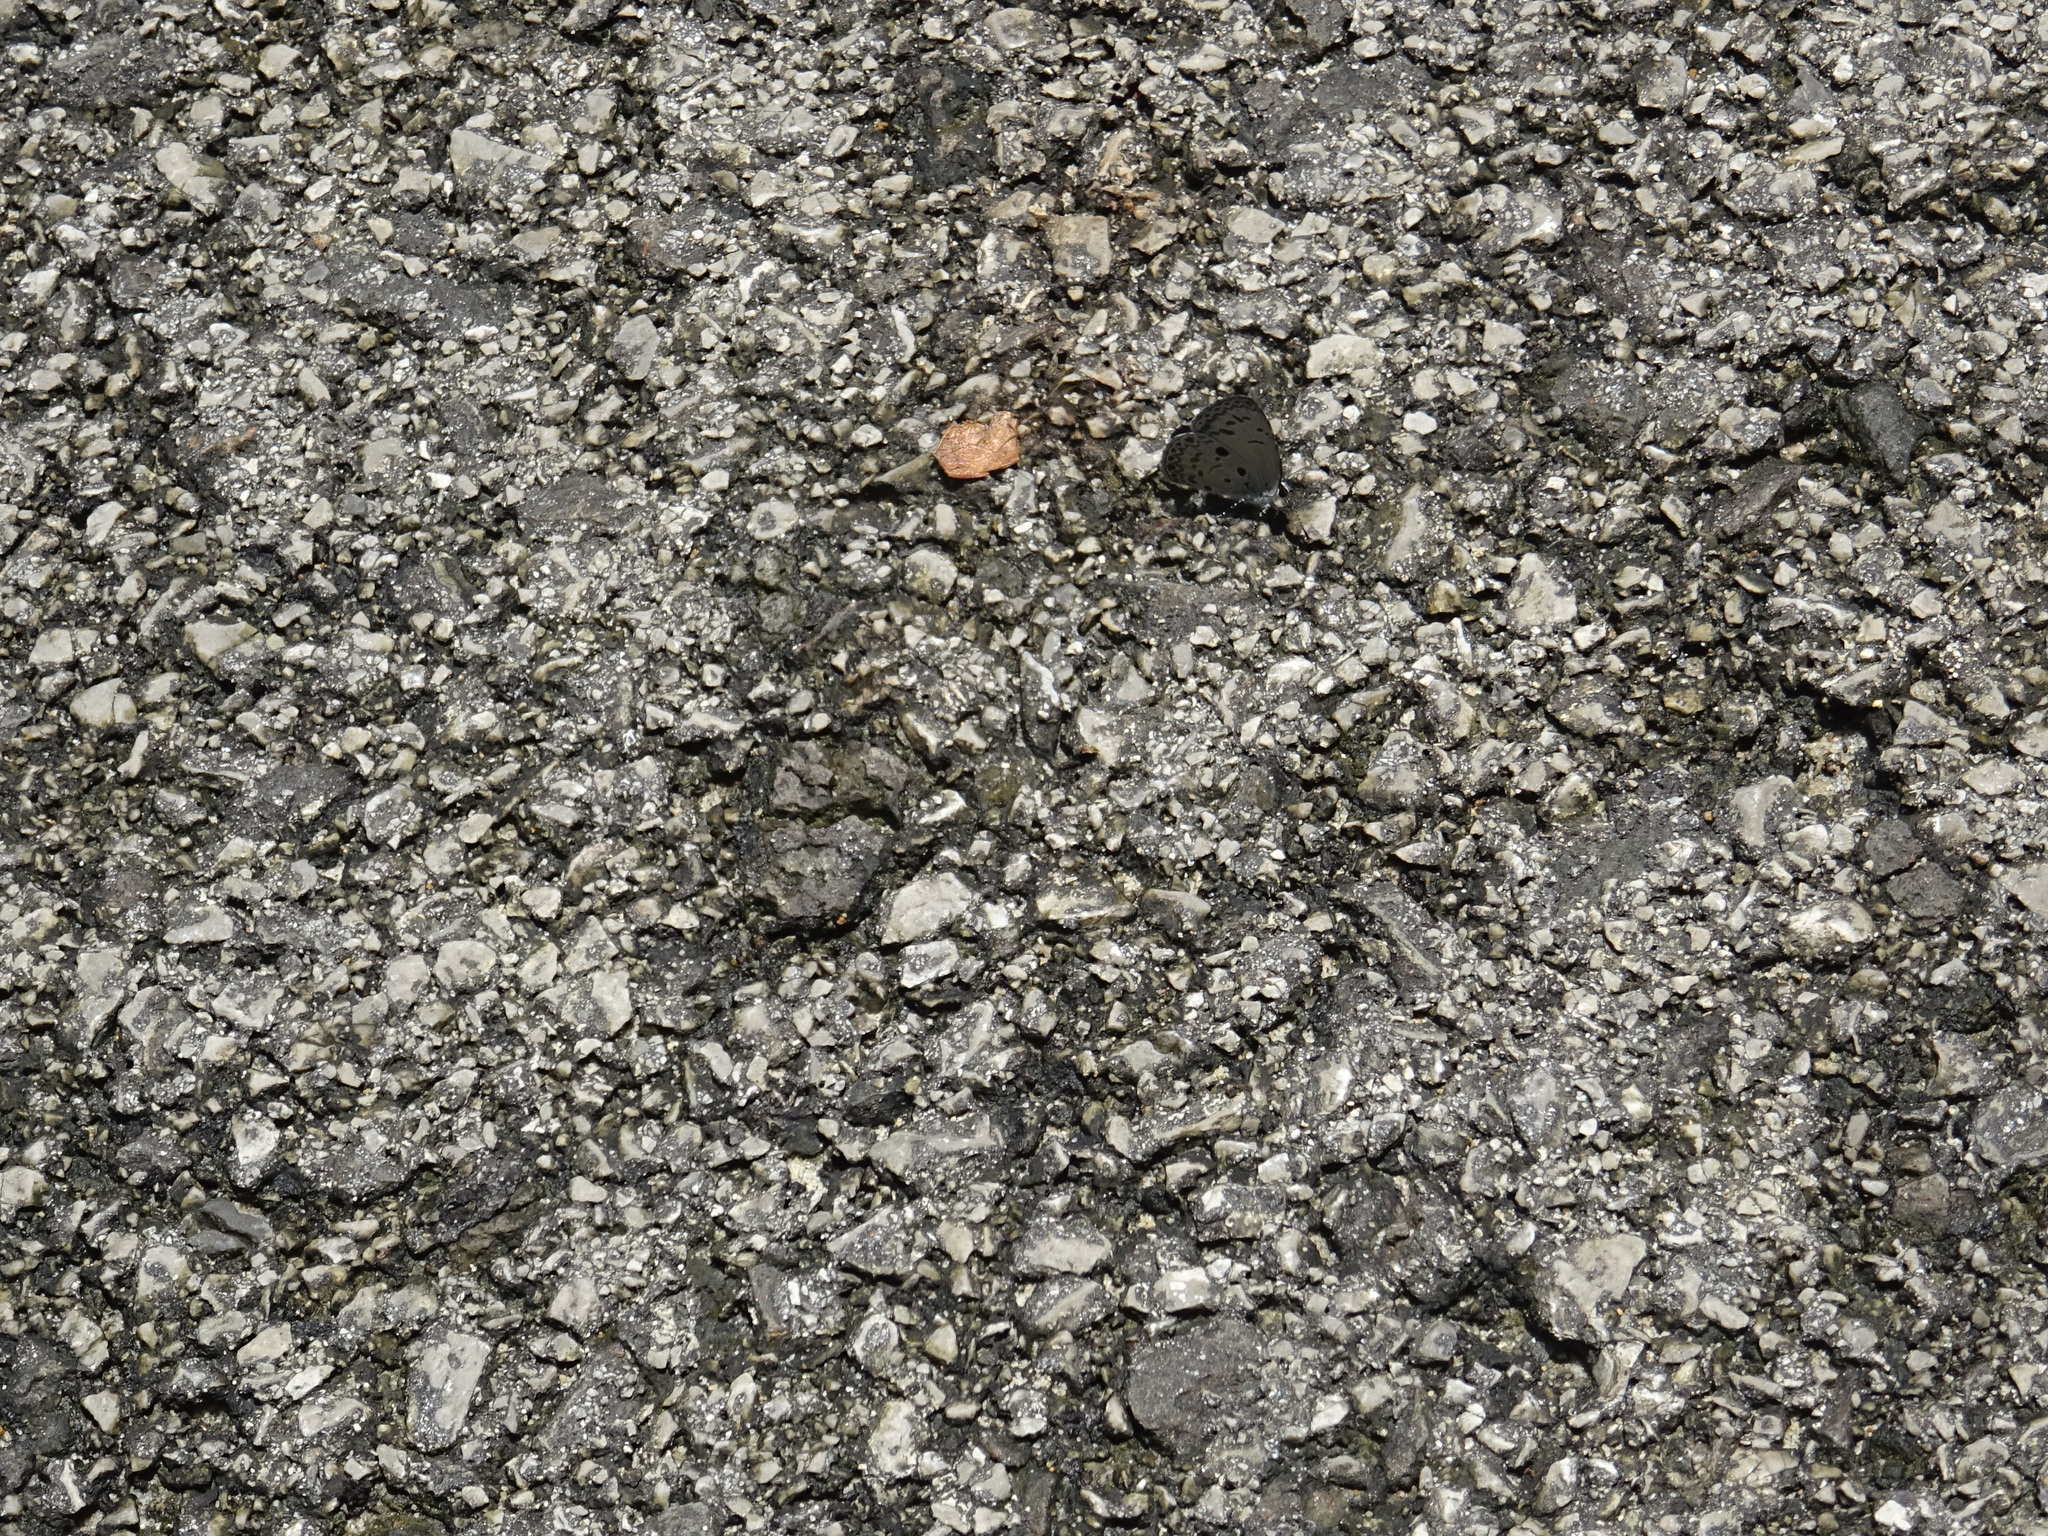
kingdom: Animalia
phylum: Arthropoda
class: Insecta
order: Lepidoptera
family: Lycaenidae
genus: Acytolepis
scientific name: Acytolepis puspa
